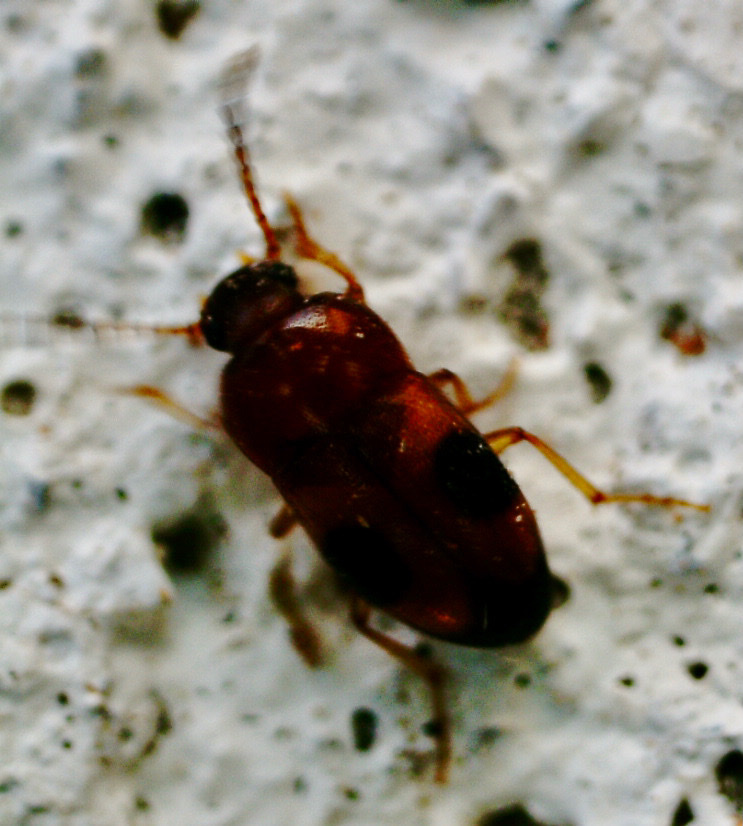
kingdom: Animalia
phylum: Arthropoda
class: Insecta
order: Coleoptera
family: Tenebrionidae
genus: Poecilocrypticus
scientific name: Poecilocrypticus formicophilus
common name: Darkling beetle
